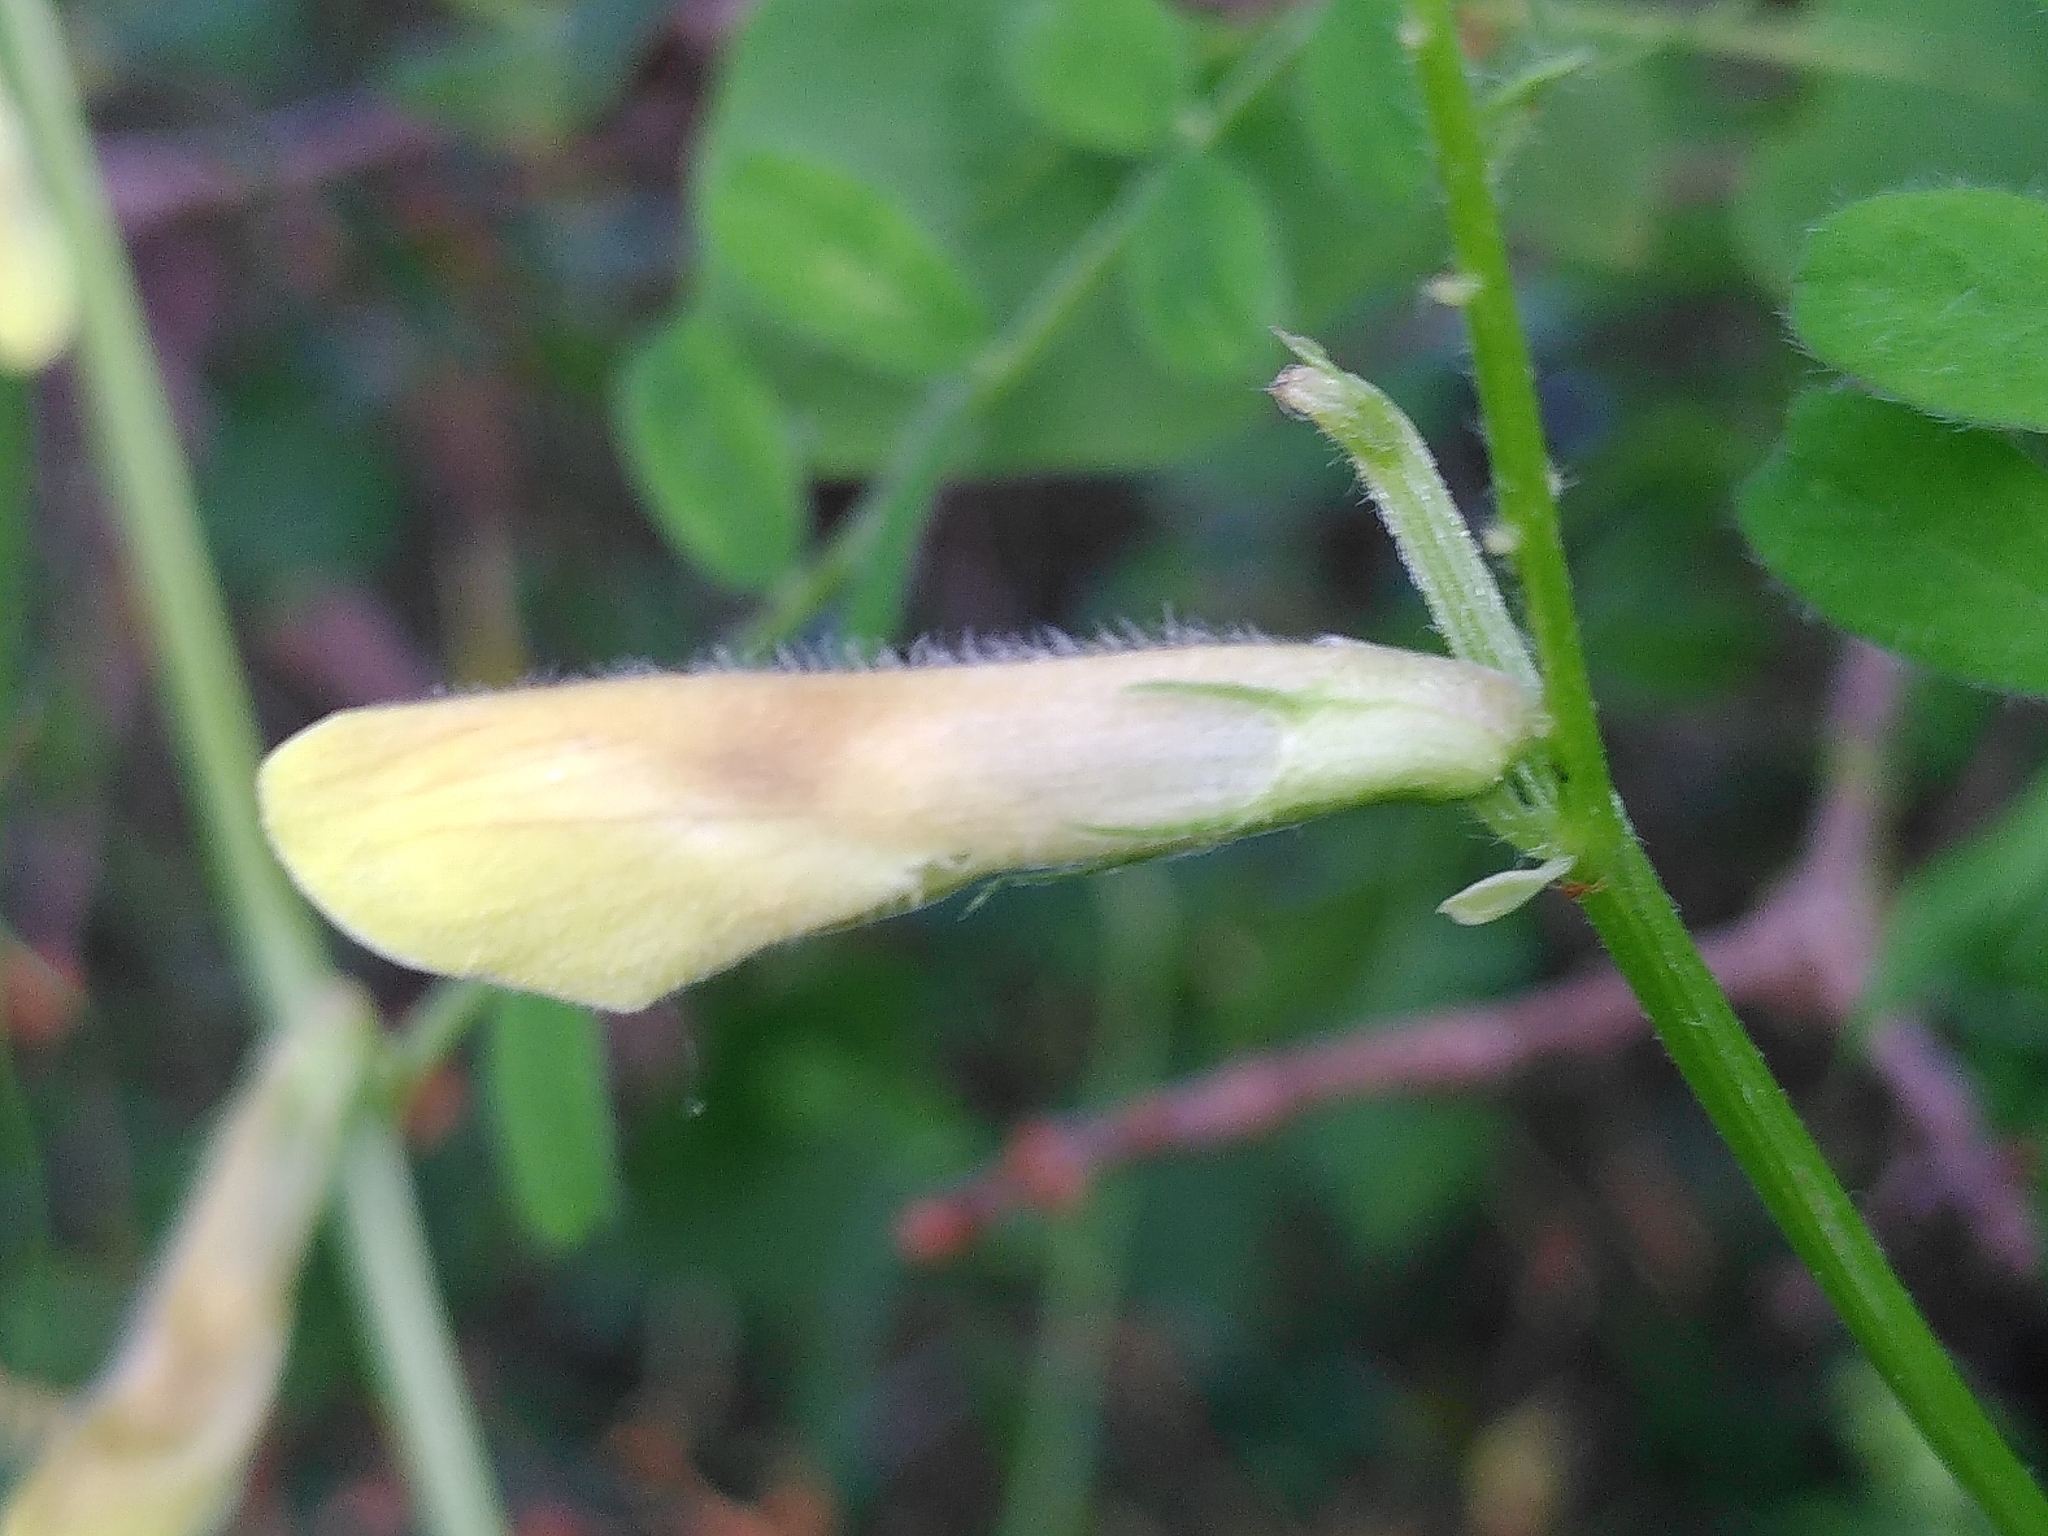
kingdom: Plantae
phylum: Tracheophyta
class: Magnoliopsida
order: Fabales
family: Fabaceae
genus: Vicia
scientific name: Vicia hybrida
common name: Hairy yellow vetch
